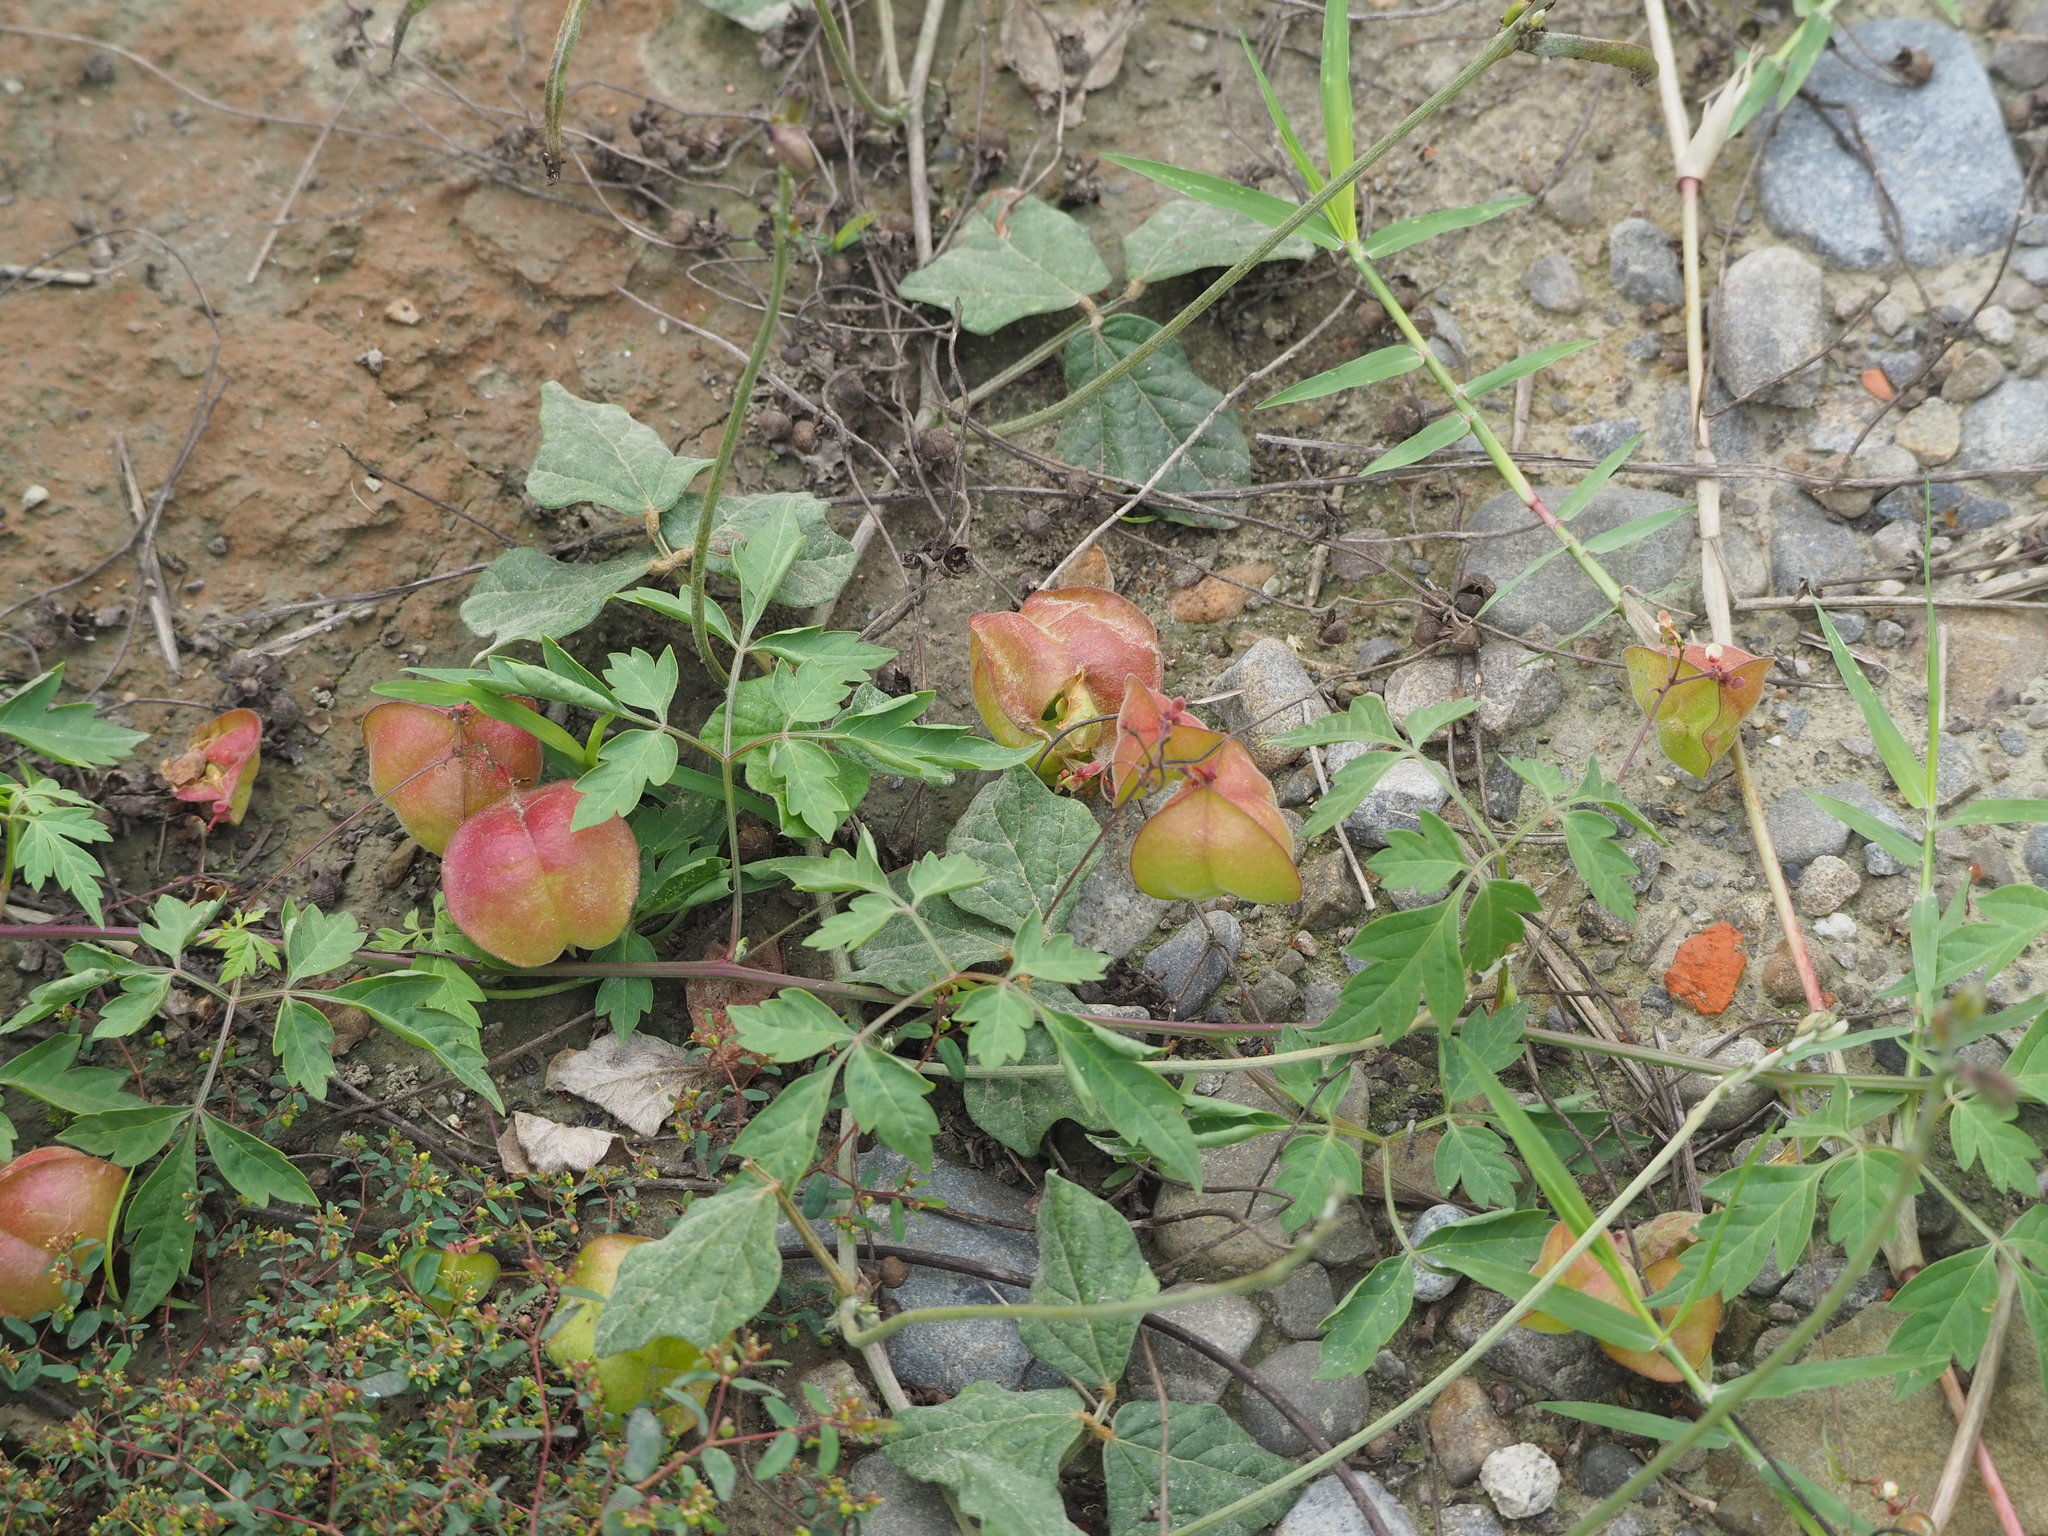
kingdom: Plantae
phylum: Tracheophyta
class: Magnoliopsida
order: Sapindales
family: Sapindaceae
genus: Cardiospermum
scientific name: Cardiospermum halicacabum
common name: Balloon vine
